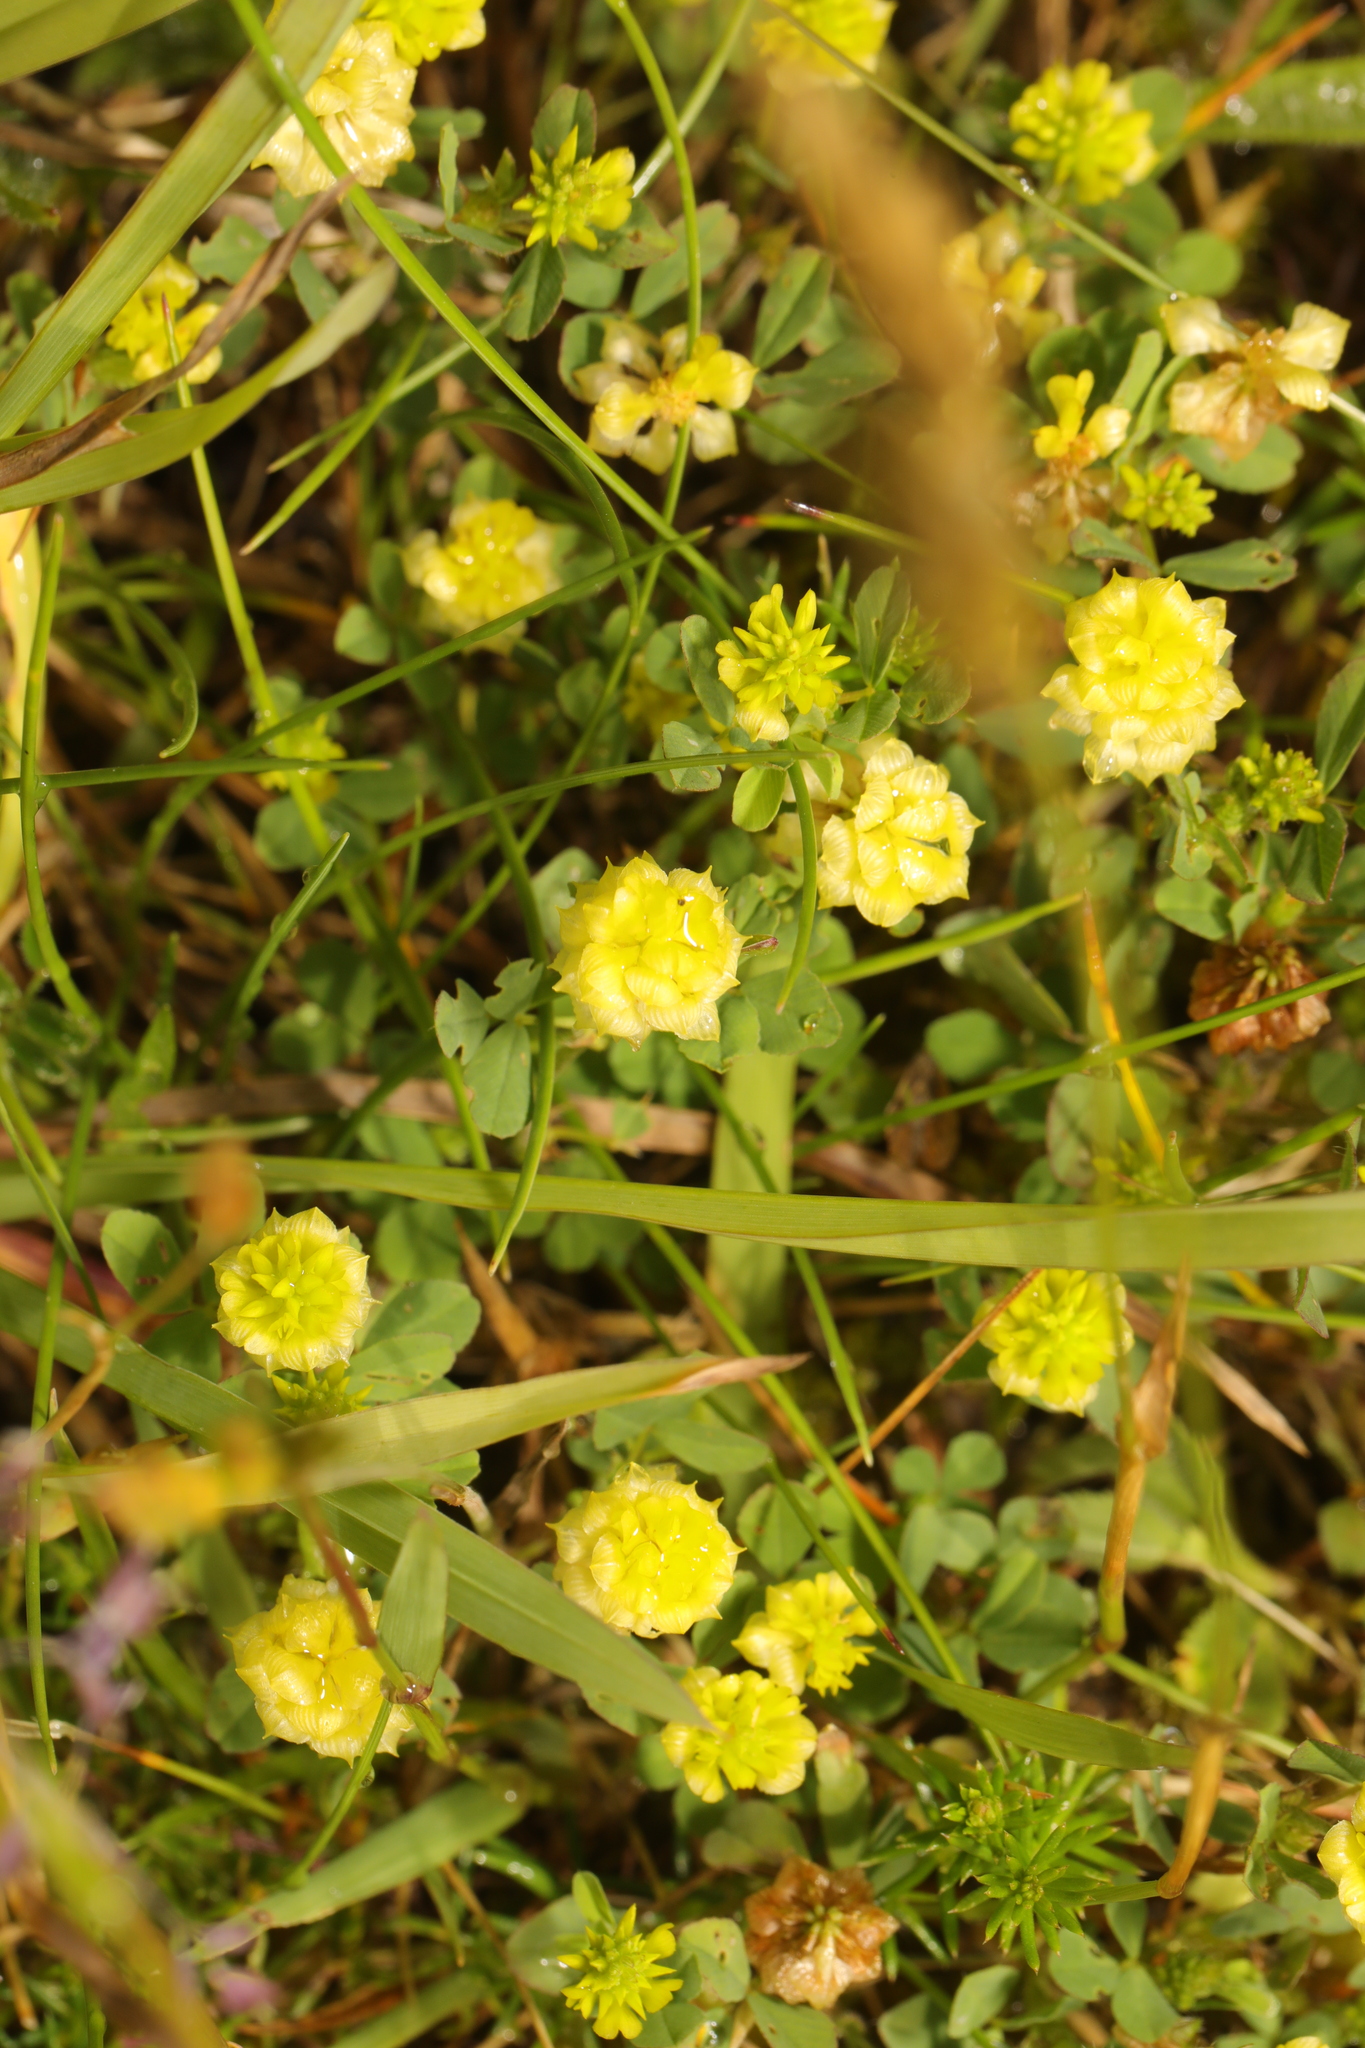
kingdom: Plantae
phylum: Tracheophyta
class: Magnoliopsida
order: Fabales
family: Fabaceae
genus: Trifolium
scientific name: Trifolium campestre
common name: Field clover
